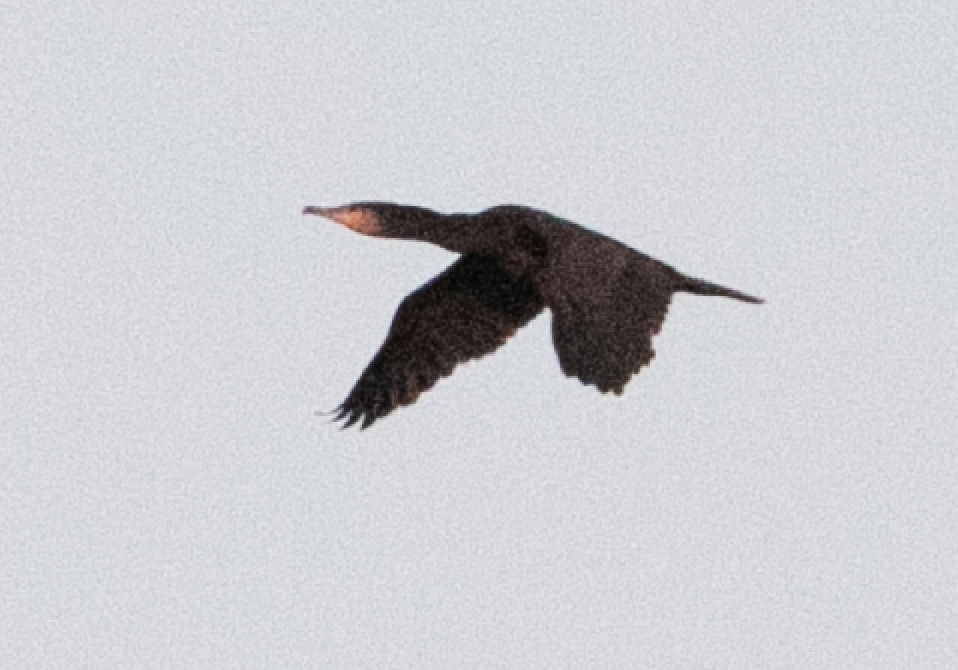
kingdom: Animalia
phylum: Chordata
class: Aves
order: Suliformes
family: Phalacrocoracidae
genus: Phalacrocorax
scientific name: Phalacrocorax carbo
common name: Great cormorant
